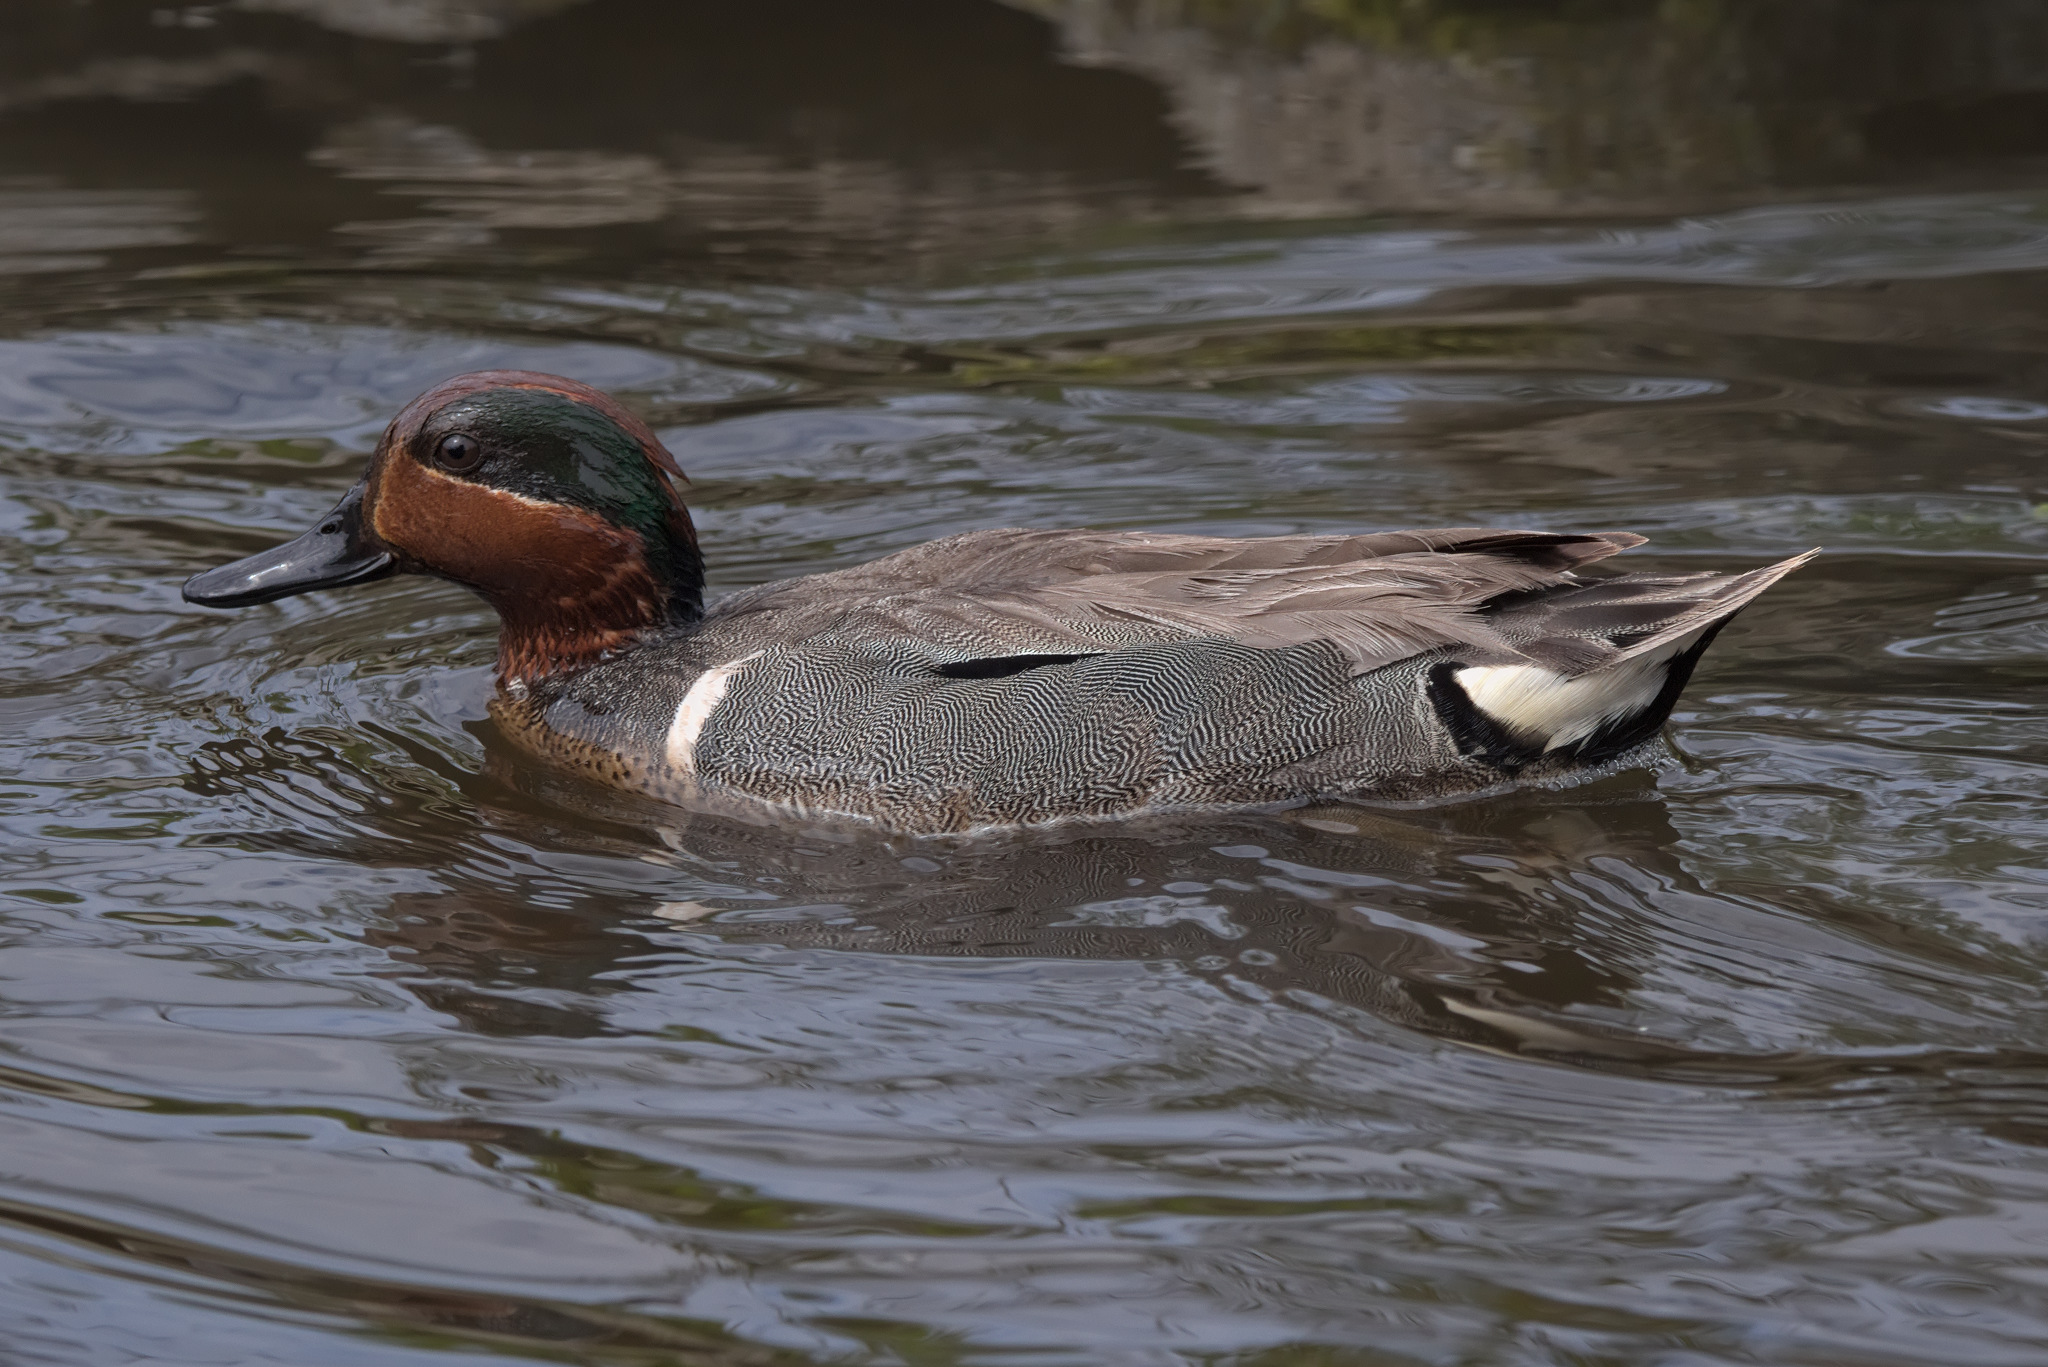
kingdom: Animalia
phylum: Chordata
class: Aves
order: Anseriformes
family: Anatidae
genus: Anas
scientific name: Anas crecca
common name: Eurasian teal
